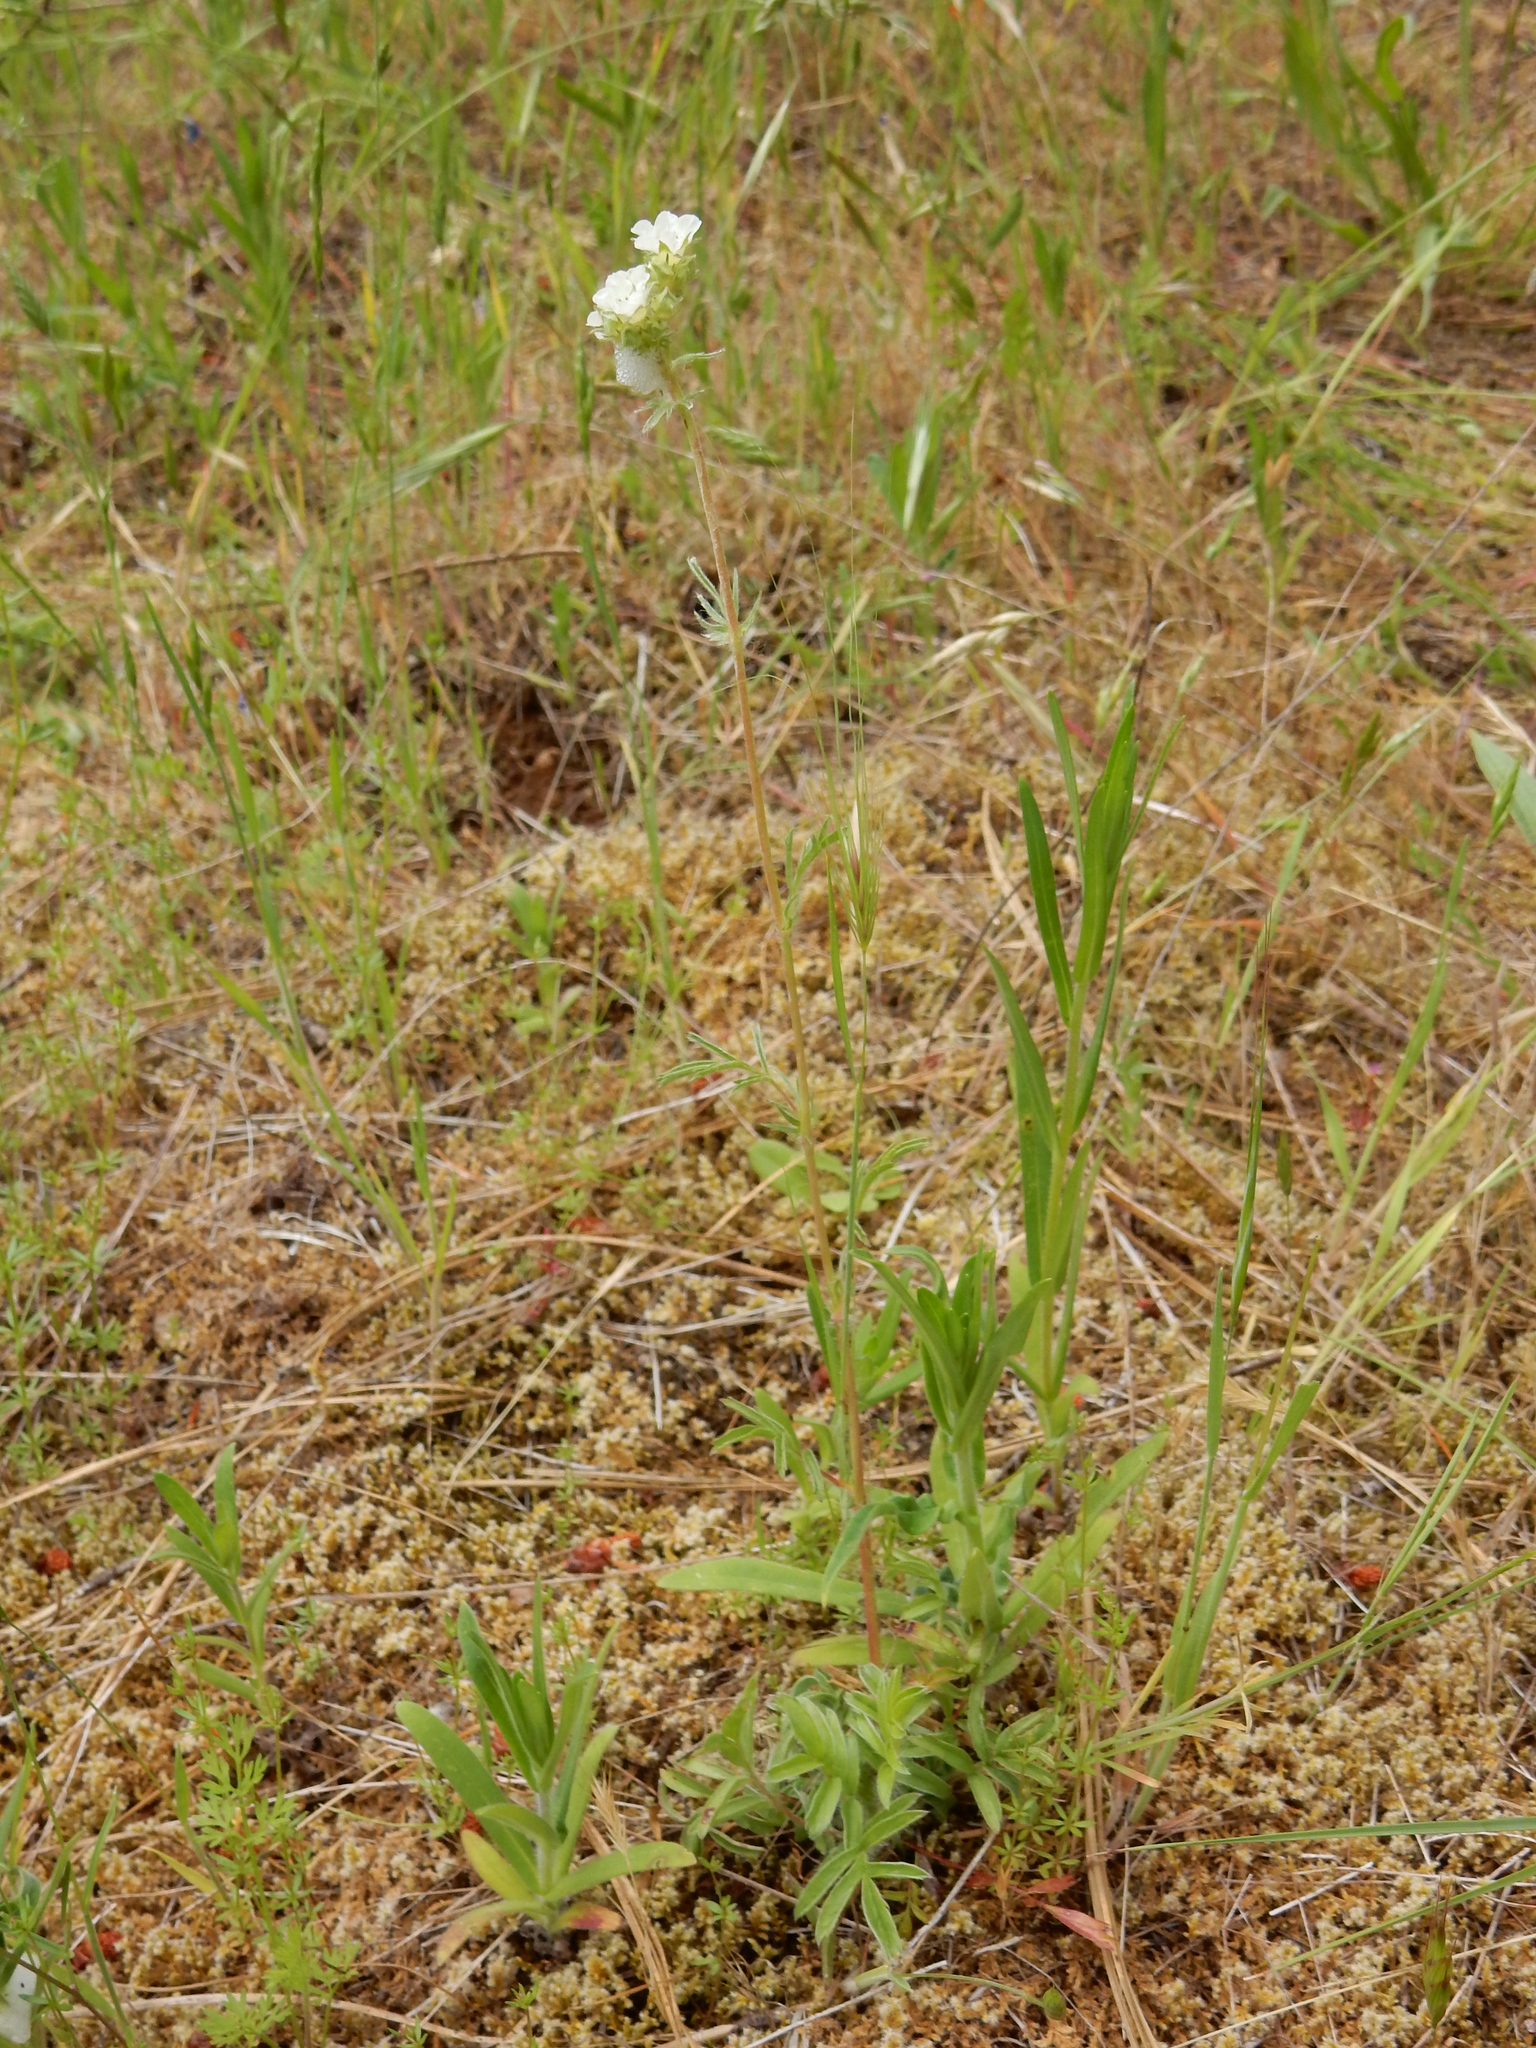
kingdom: Plantae
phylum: Tracheophyta
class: Magnoliopsida
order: Rosales
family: Rosaceae
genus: Potentilla
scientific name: Potentilla congesta
